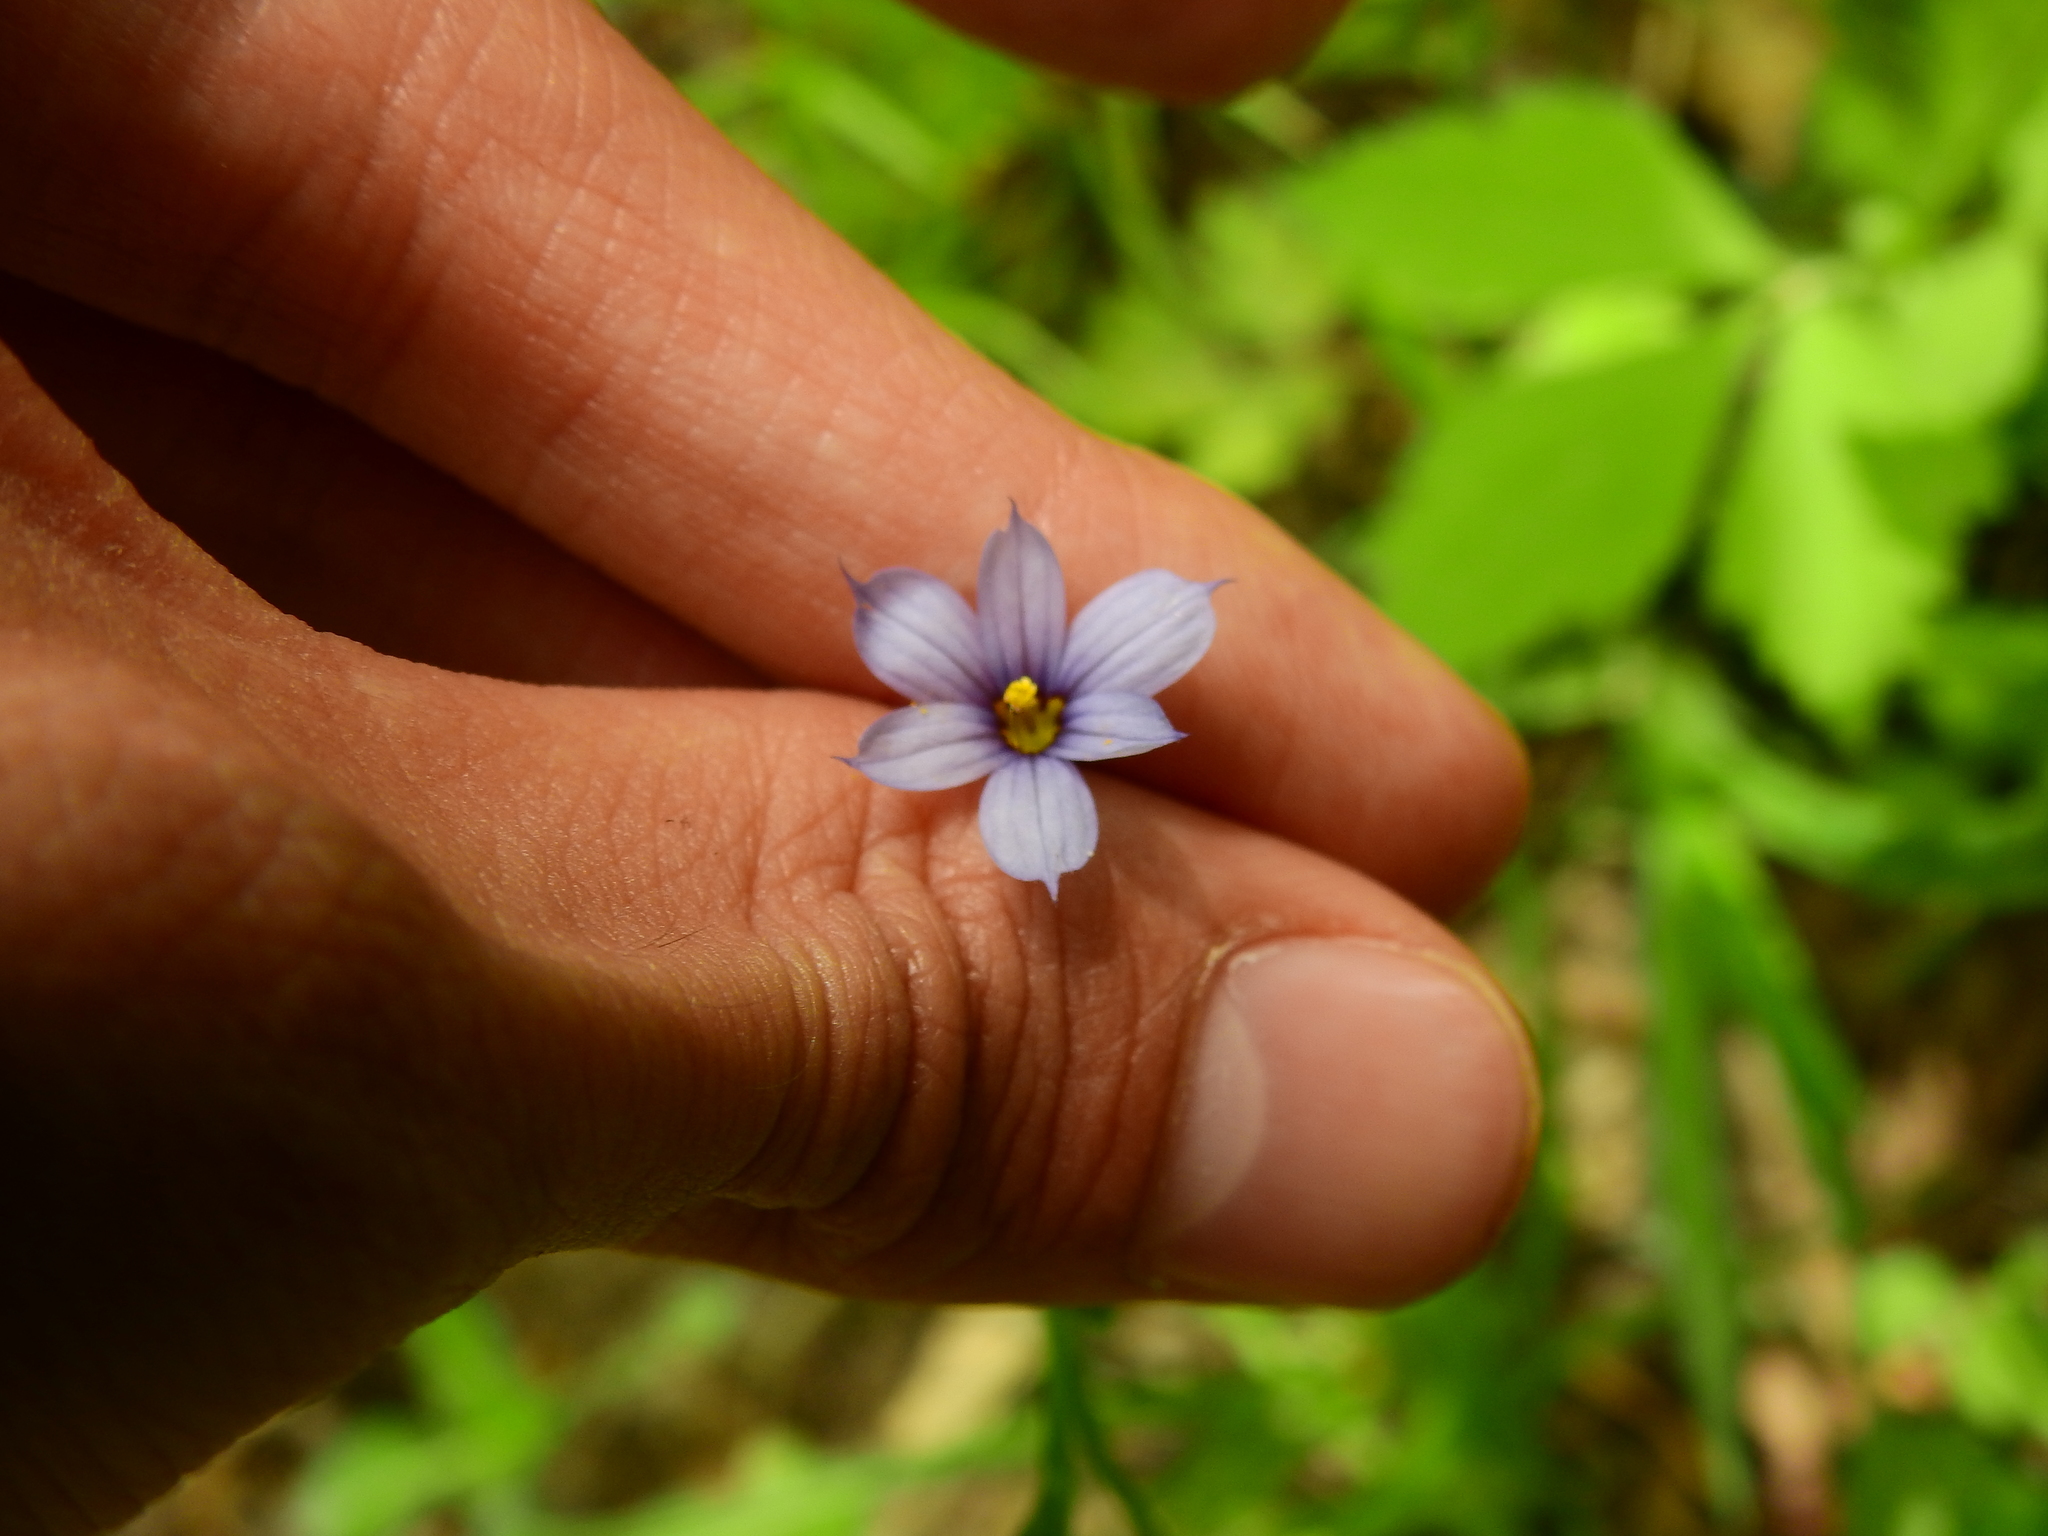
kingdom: Plantae
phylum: Tracheophyta
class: Liliopsida
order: Asparagales
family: Iridaceae
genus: Sisyrinchium
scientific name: Sisyrinchium angustifolium
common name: Narrow-leaf blue-eyed-grass
